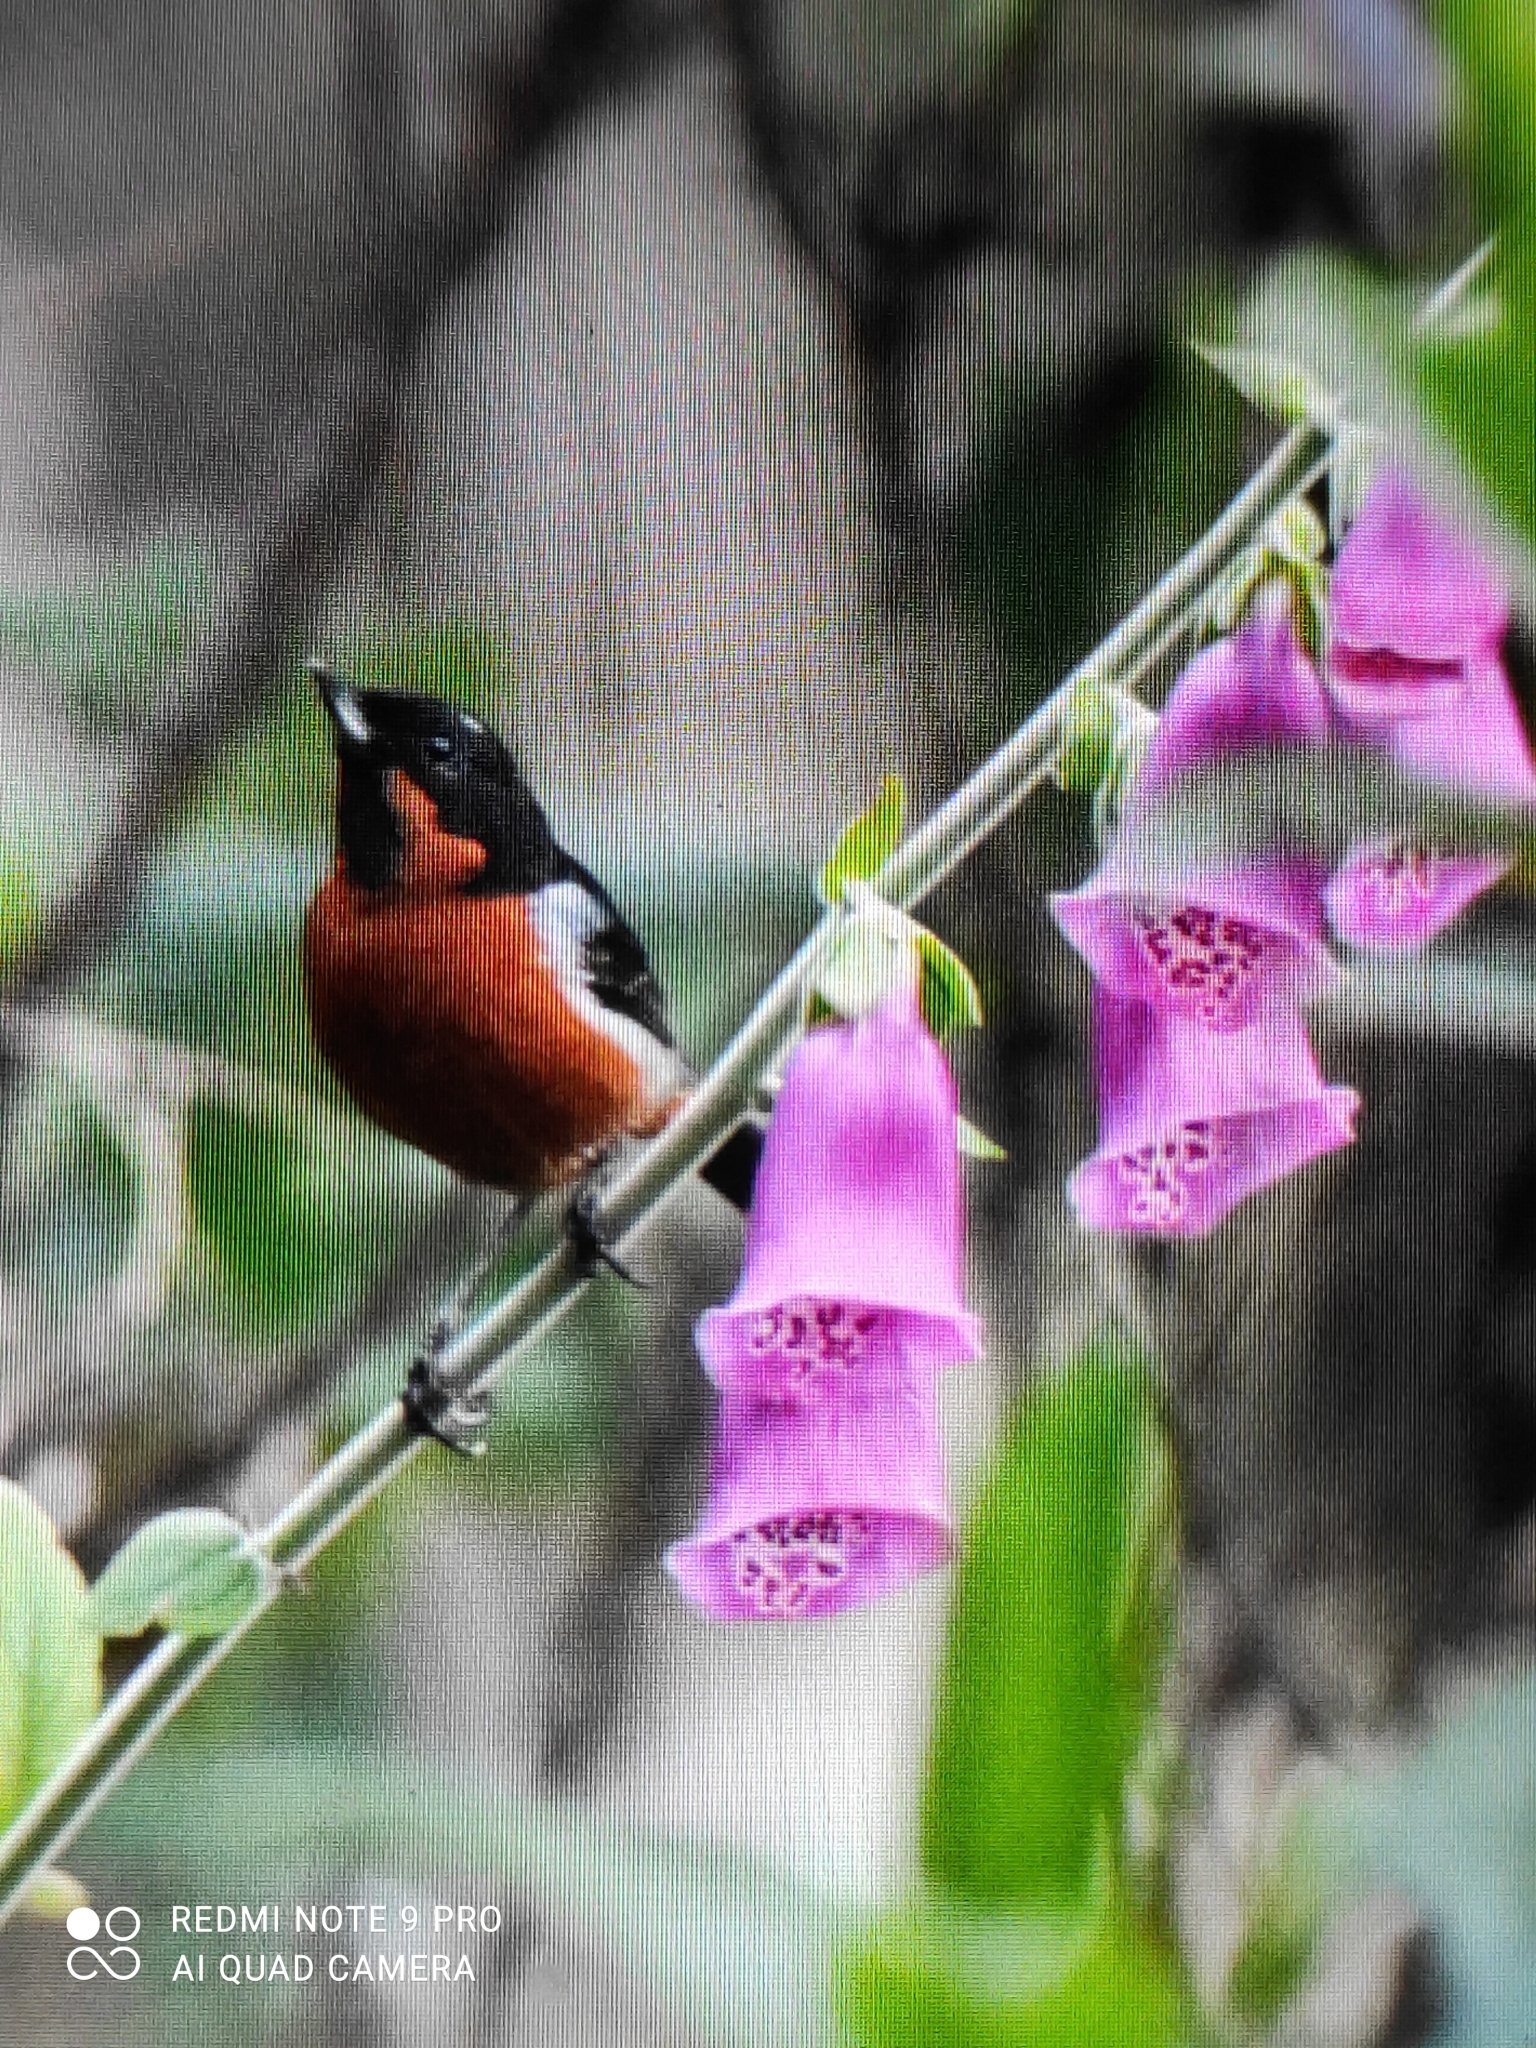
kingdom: Animalia
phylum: Chordata
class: Aves
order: Passeriformes
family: Thraupidae
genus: Diglossa
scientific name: Diglossa brunneiventris
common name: Black-throated flowerpiercer
